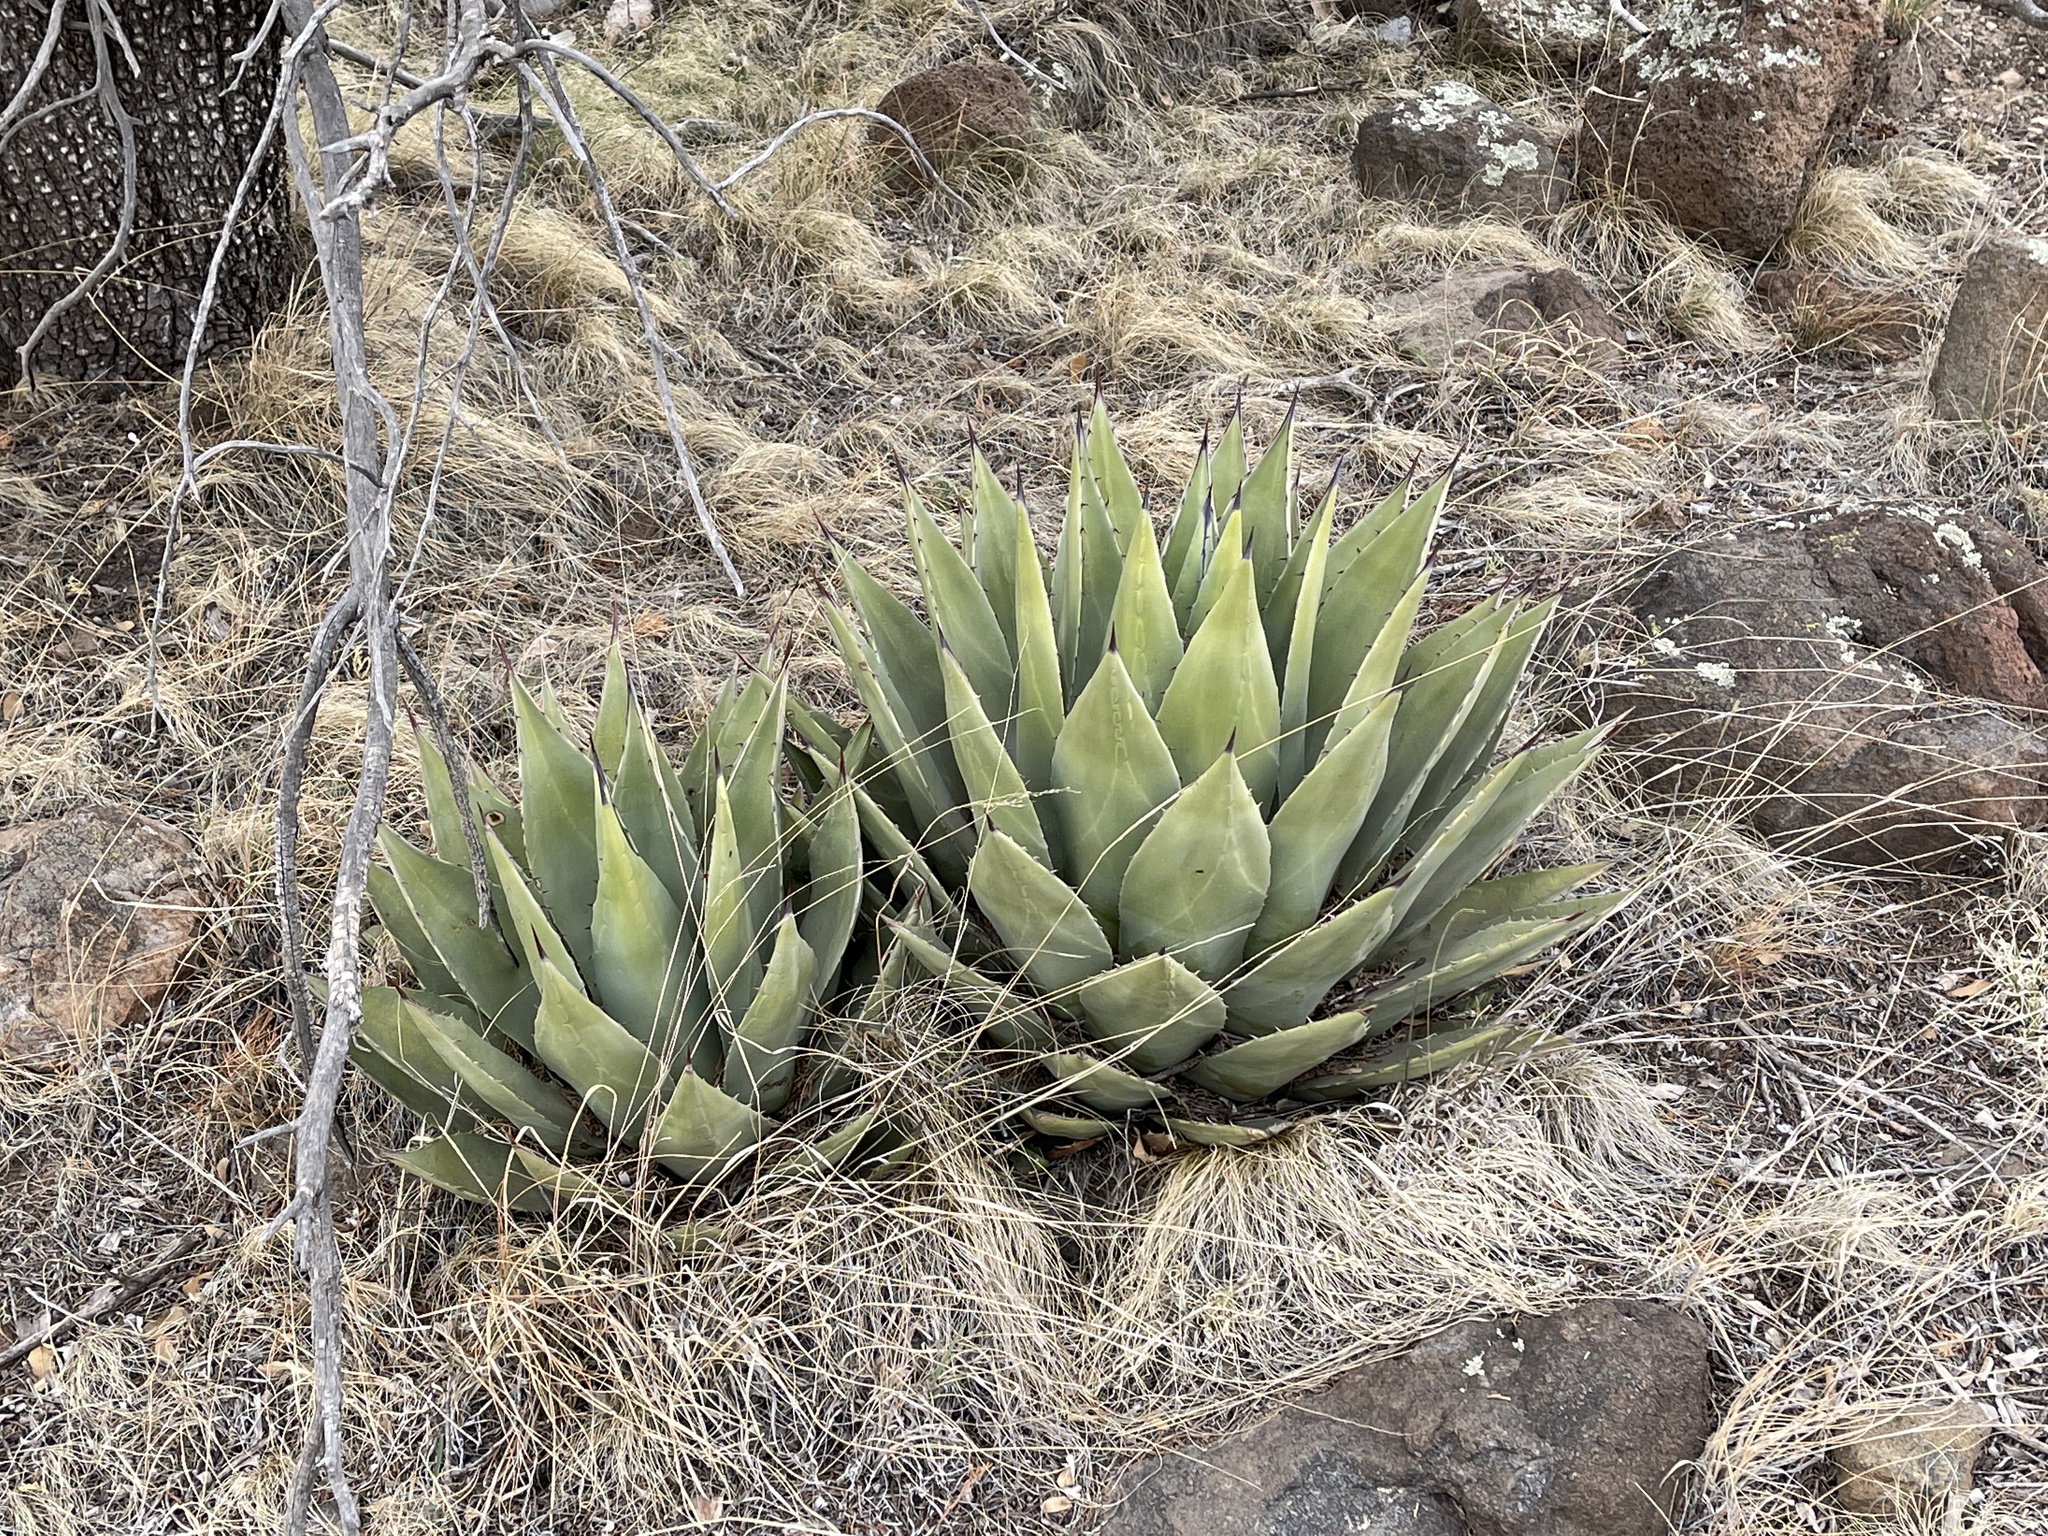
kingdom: Plantae
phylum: Tracheophyta
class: Liliopsida
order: Asparagales
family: Asparagaceae
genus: Agave
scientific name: Agave parryi
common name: Parry's agave
